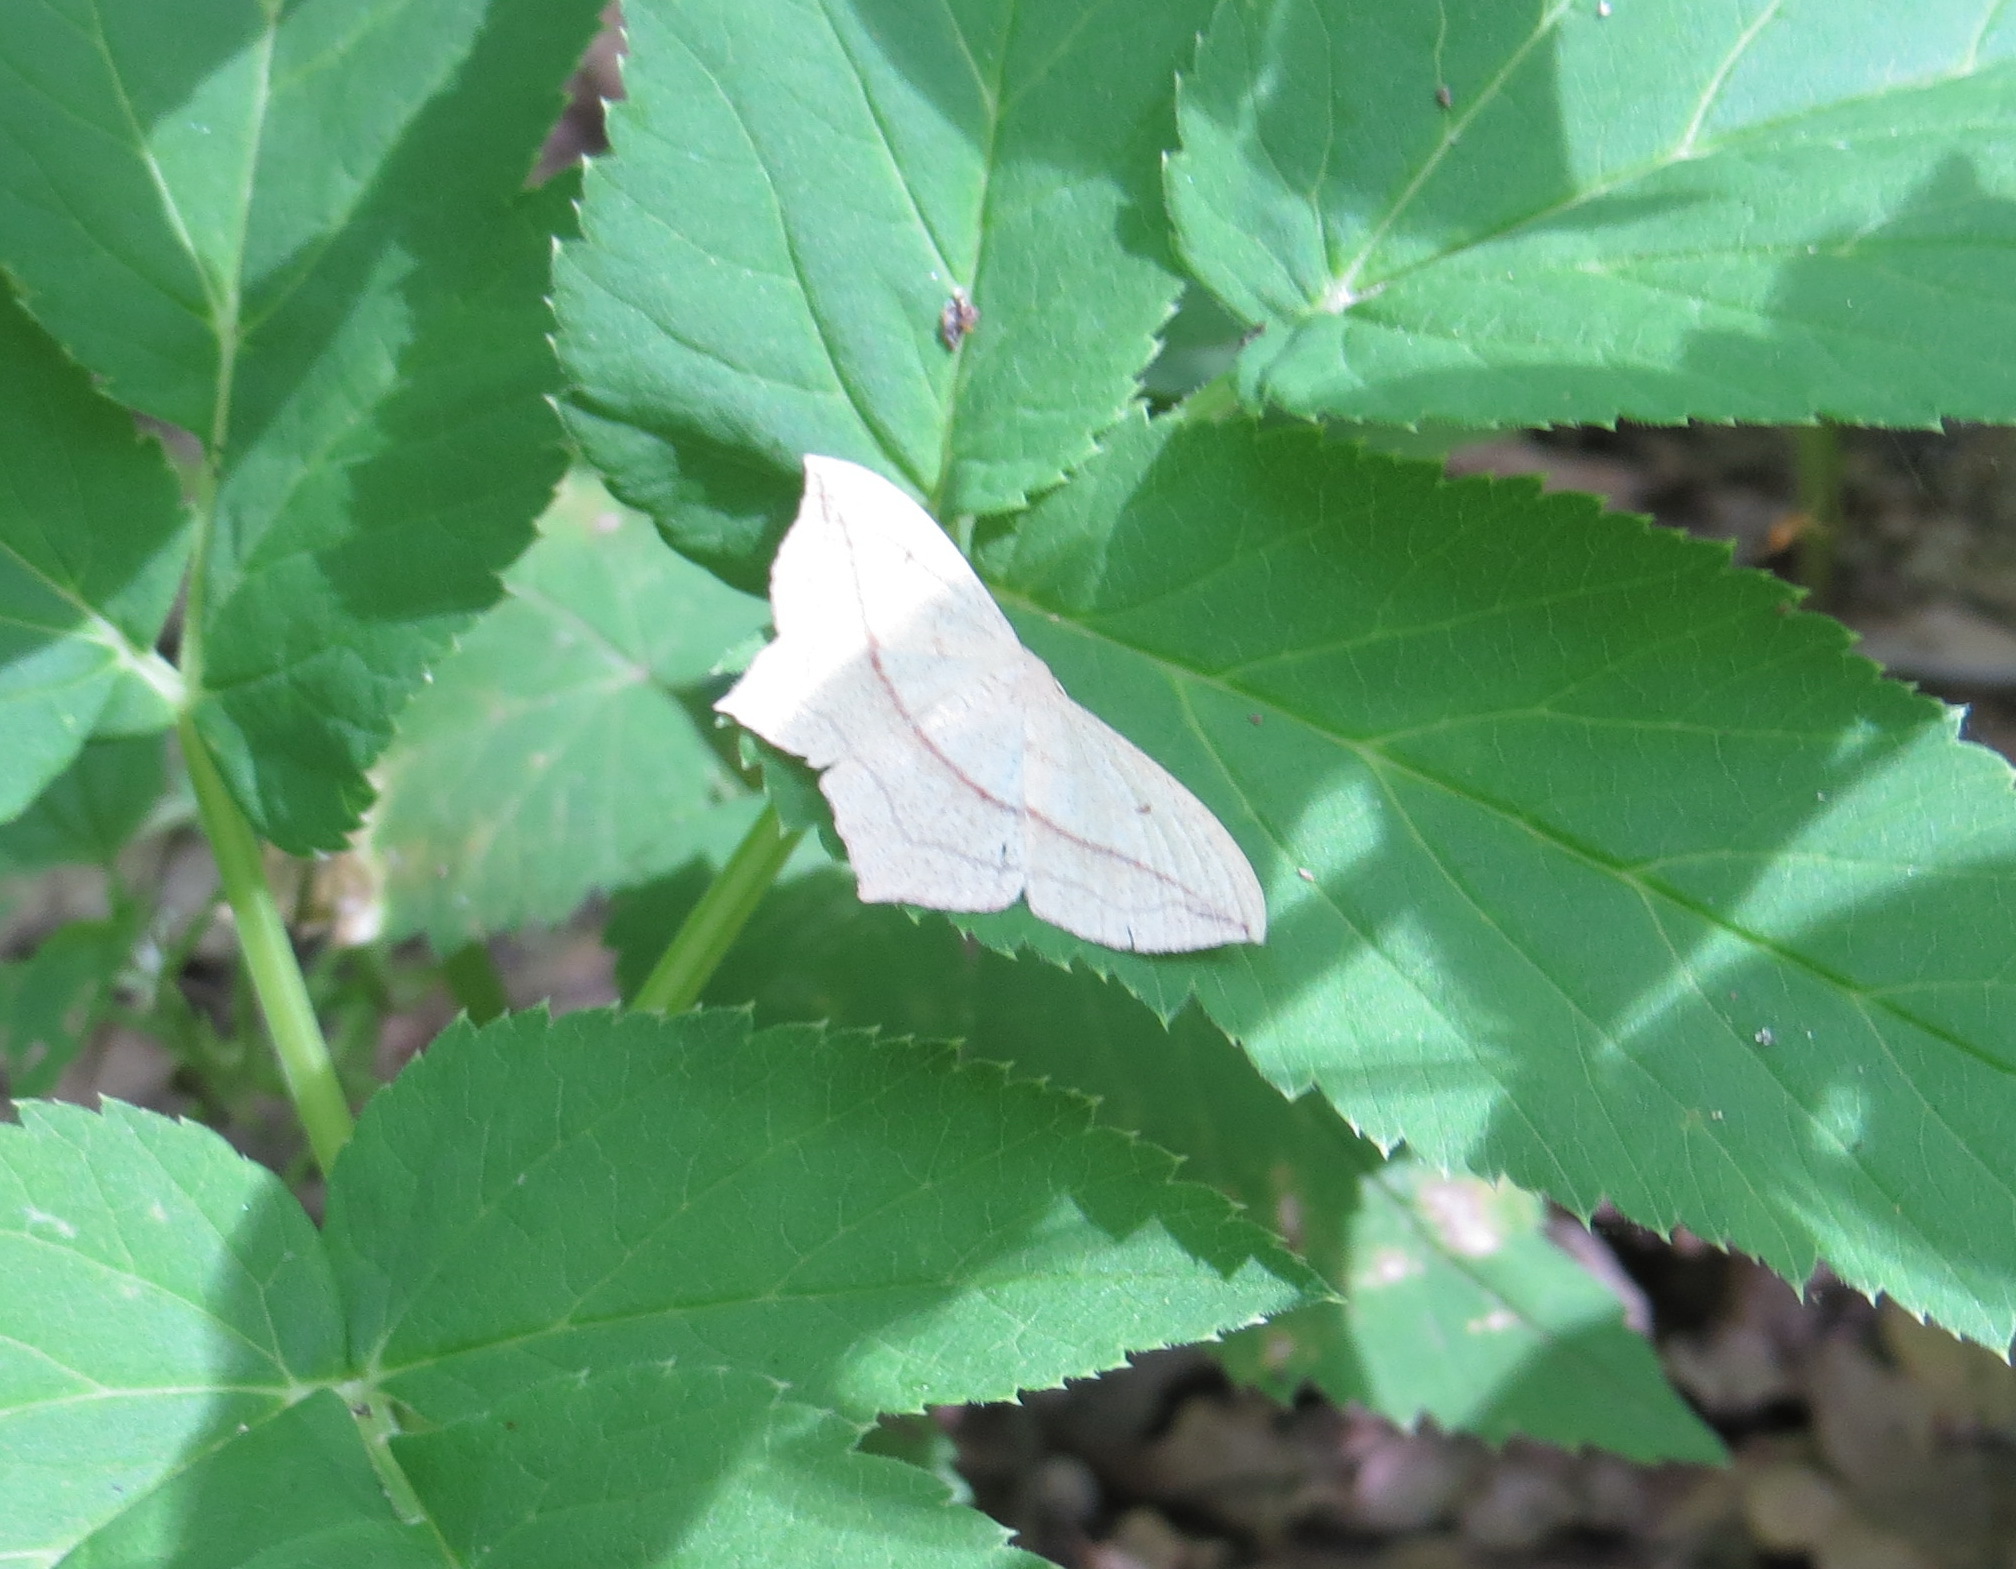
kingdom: Animalia
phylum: Arthropoda
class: Insecta
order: Lepidoptera
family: Geometridae
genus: Timandra
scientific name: Timandra comae
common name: Blood-vein
